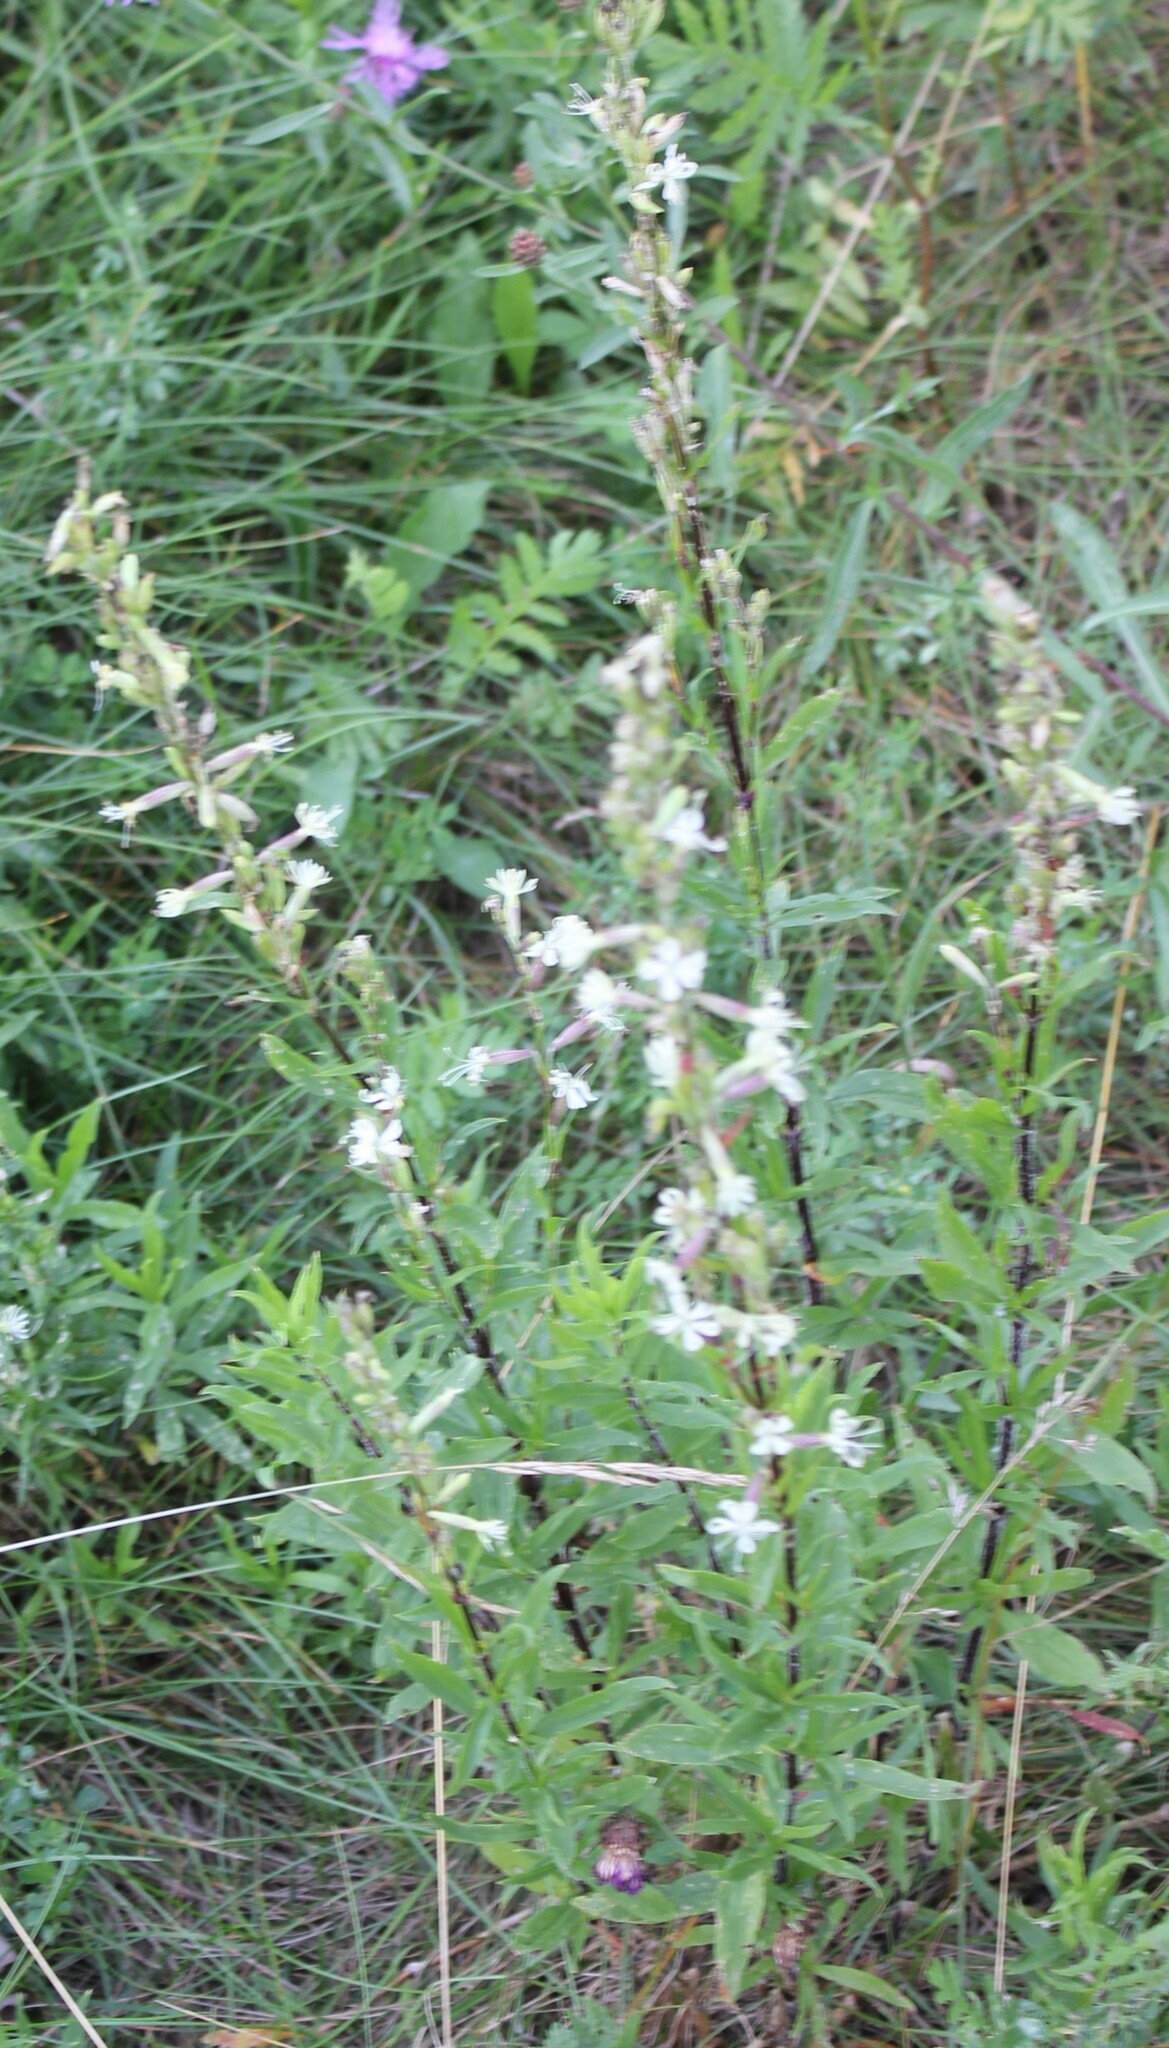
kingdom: Plantae
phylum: Tracheophyta
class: Magnoliopsida
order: Caryophyllales
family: Caryophyllaceae
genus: Silene
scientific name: Silene tatarica
